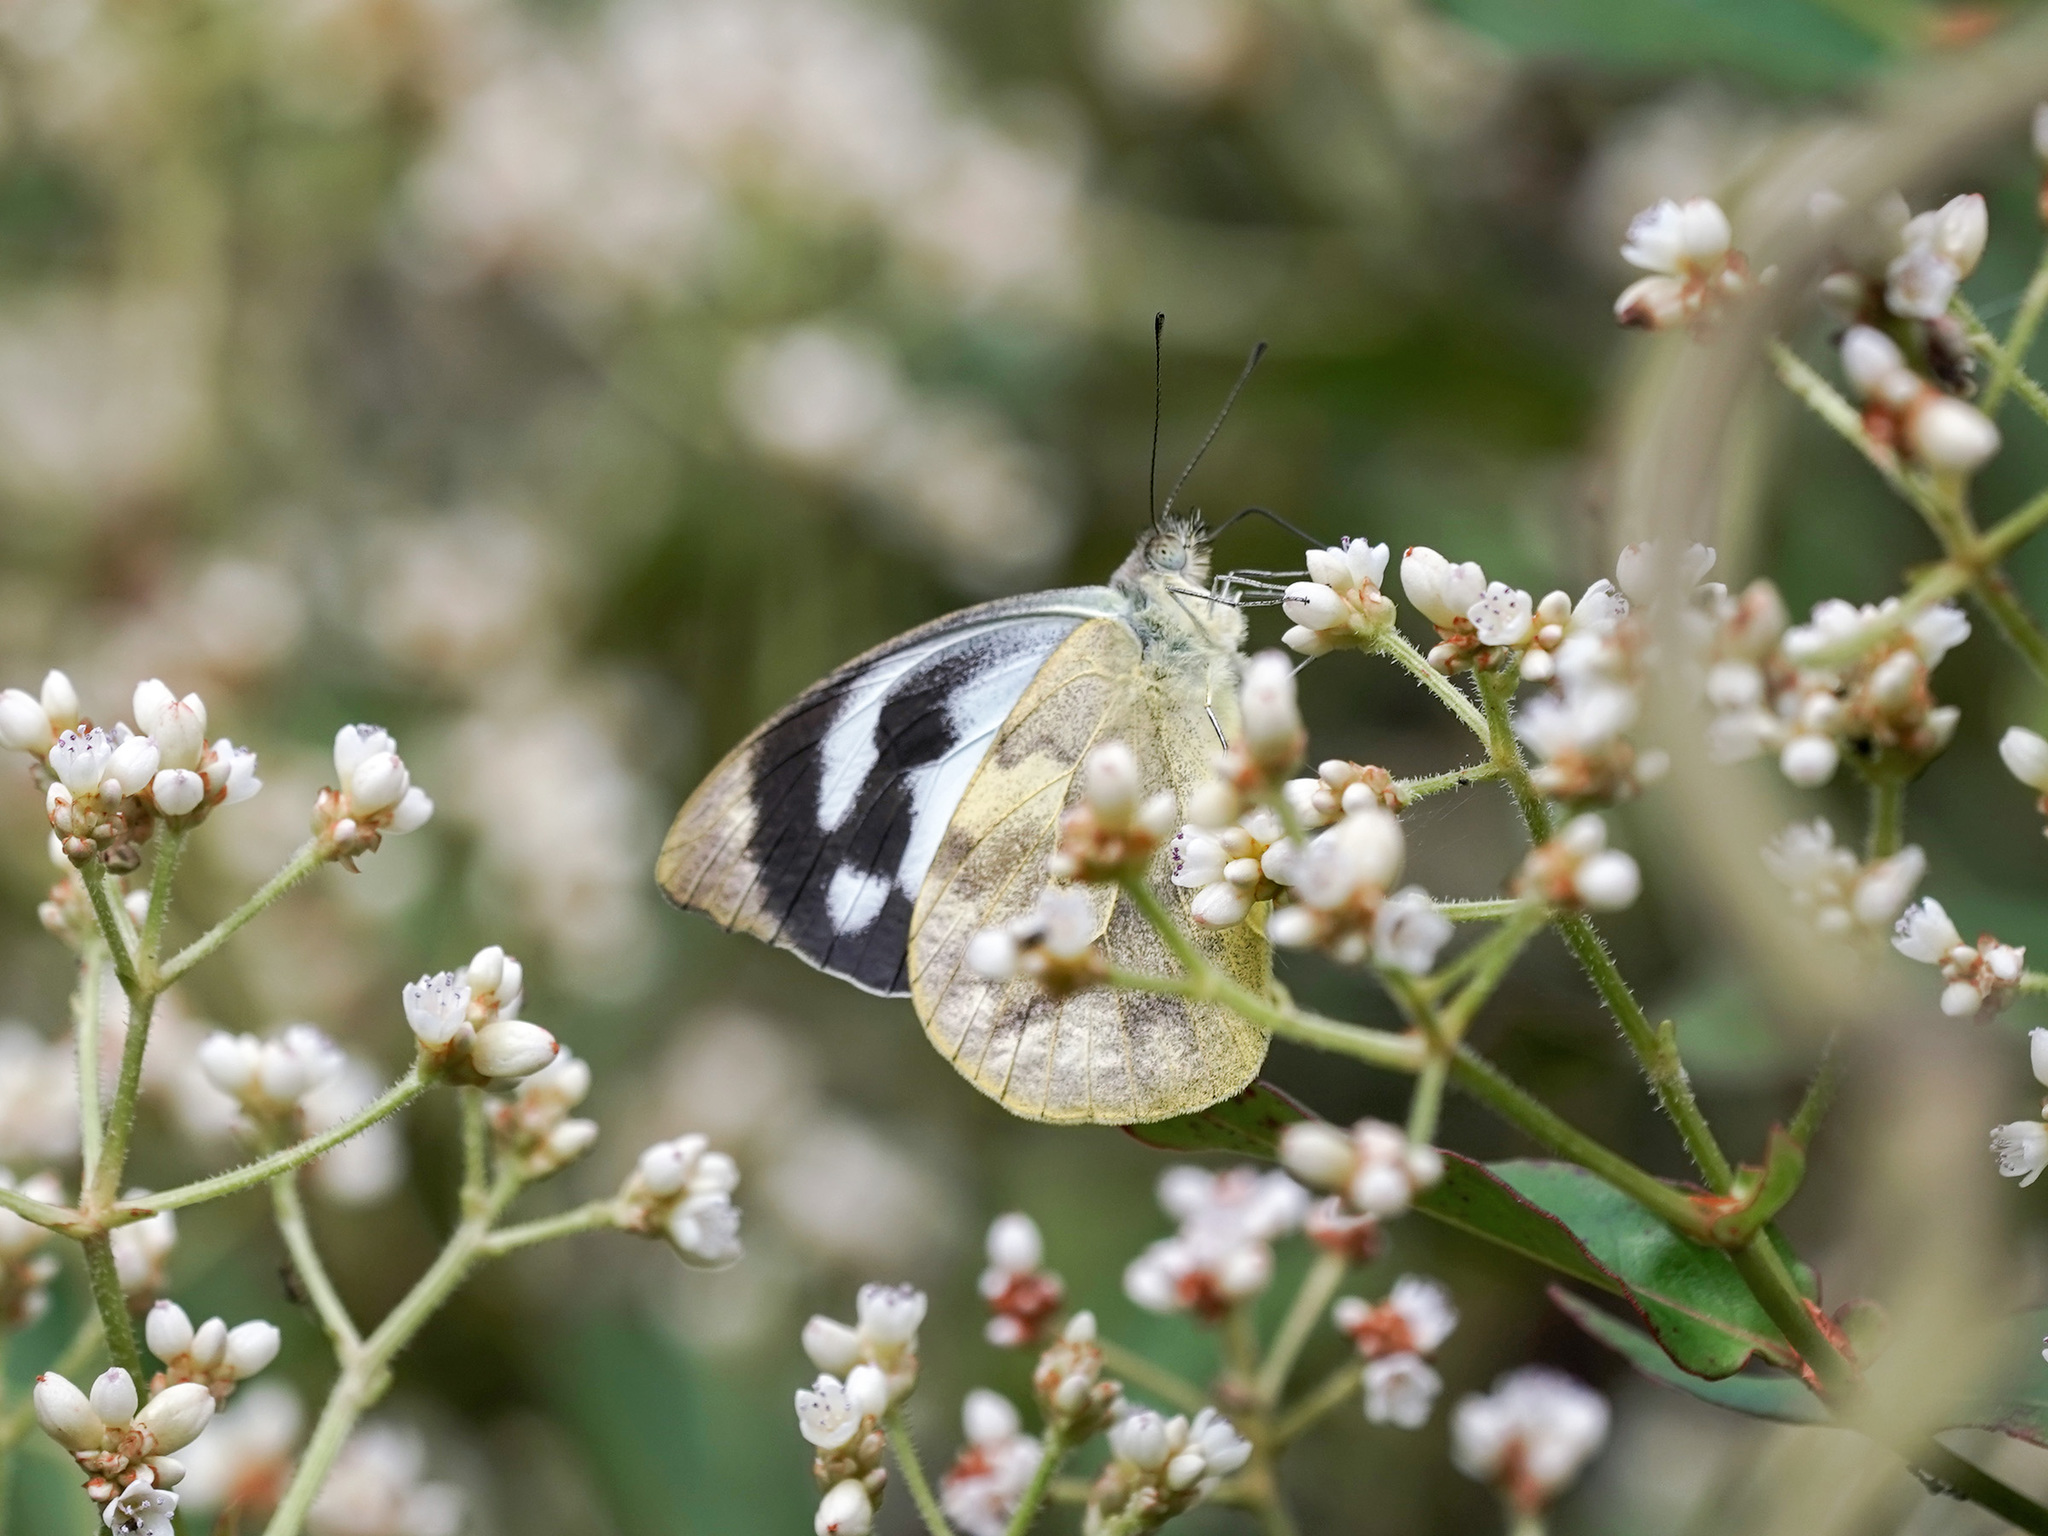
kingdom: Animalia
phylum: Arthropoda
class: Insecta
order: Lepidoptera
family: Pieridae
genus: Appias
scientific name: Appias pandione
